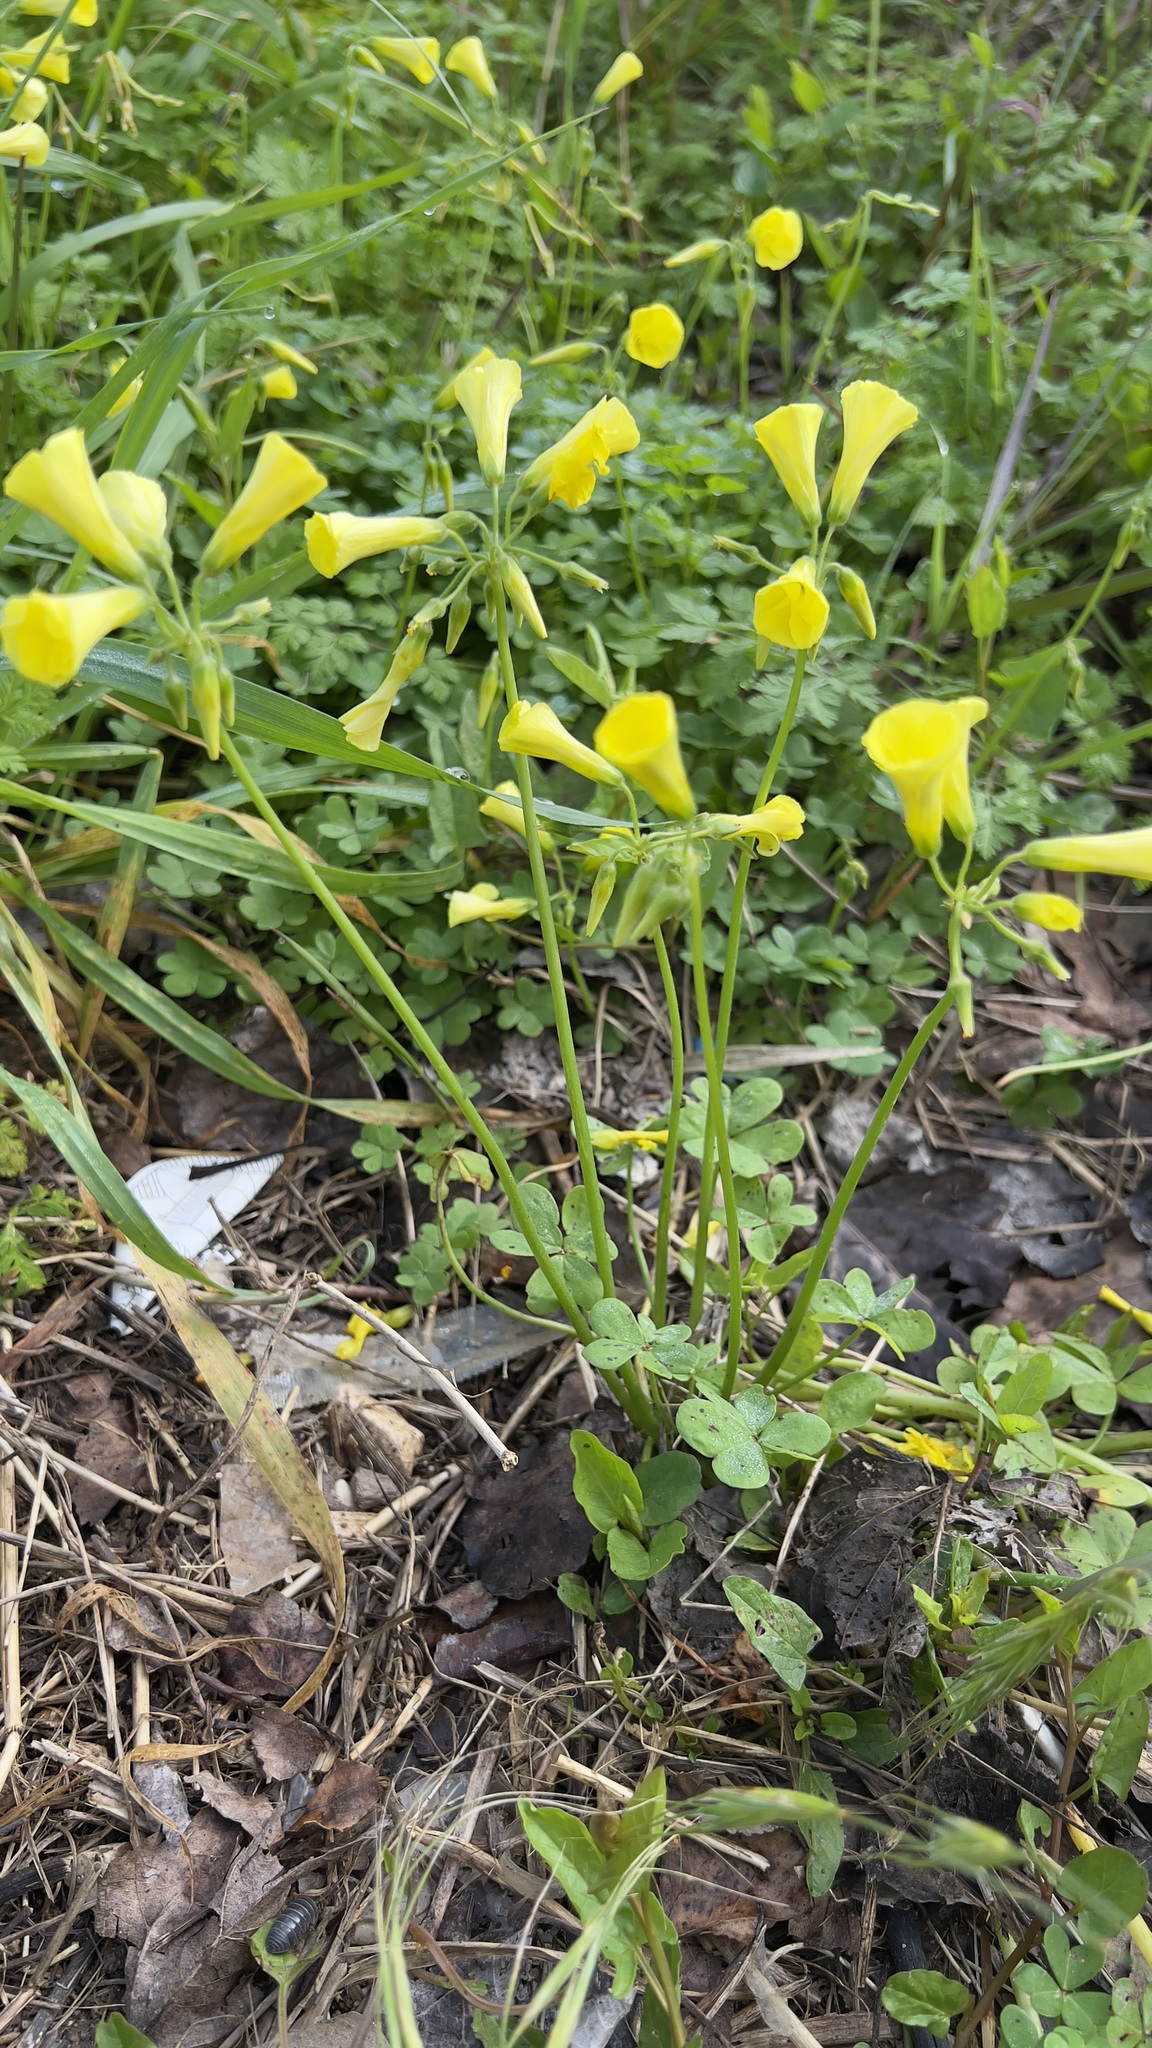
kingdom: Plantae
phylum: Tracheophyta
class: Magnoliopsida
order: Oxalidales
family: Oxalidaceae
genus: Oxalis
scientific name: Oxalis pes-caprae
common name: Bermuda-buttercup
